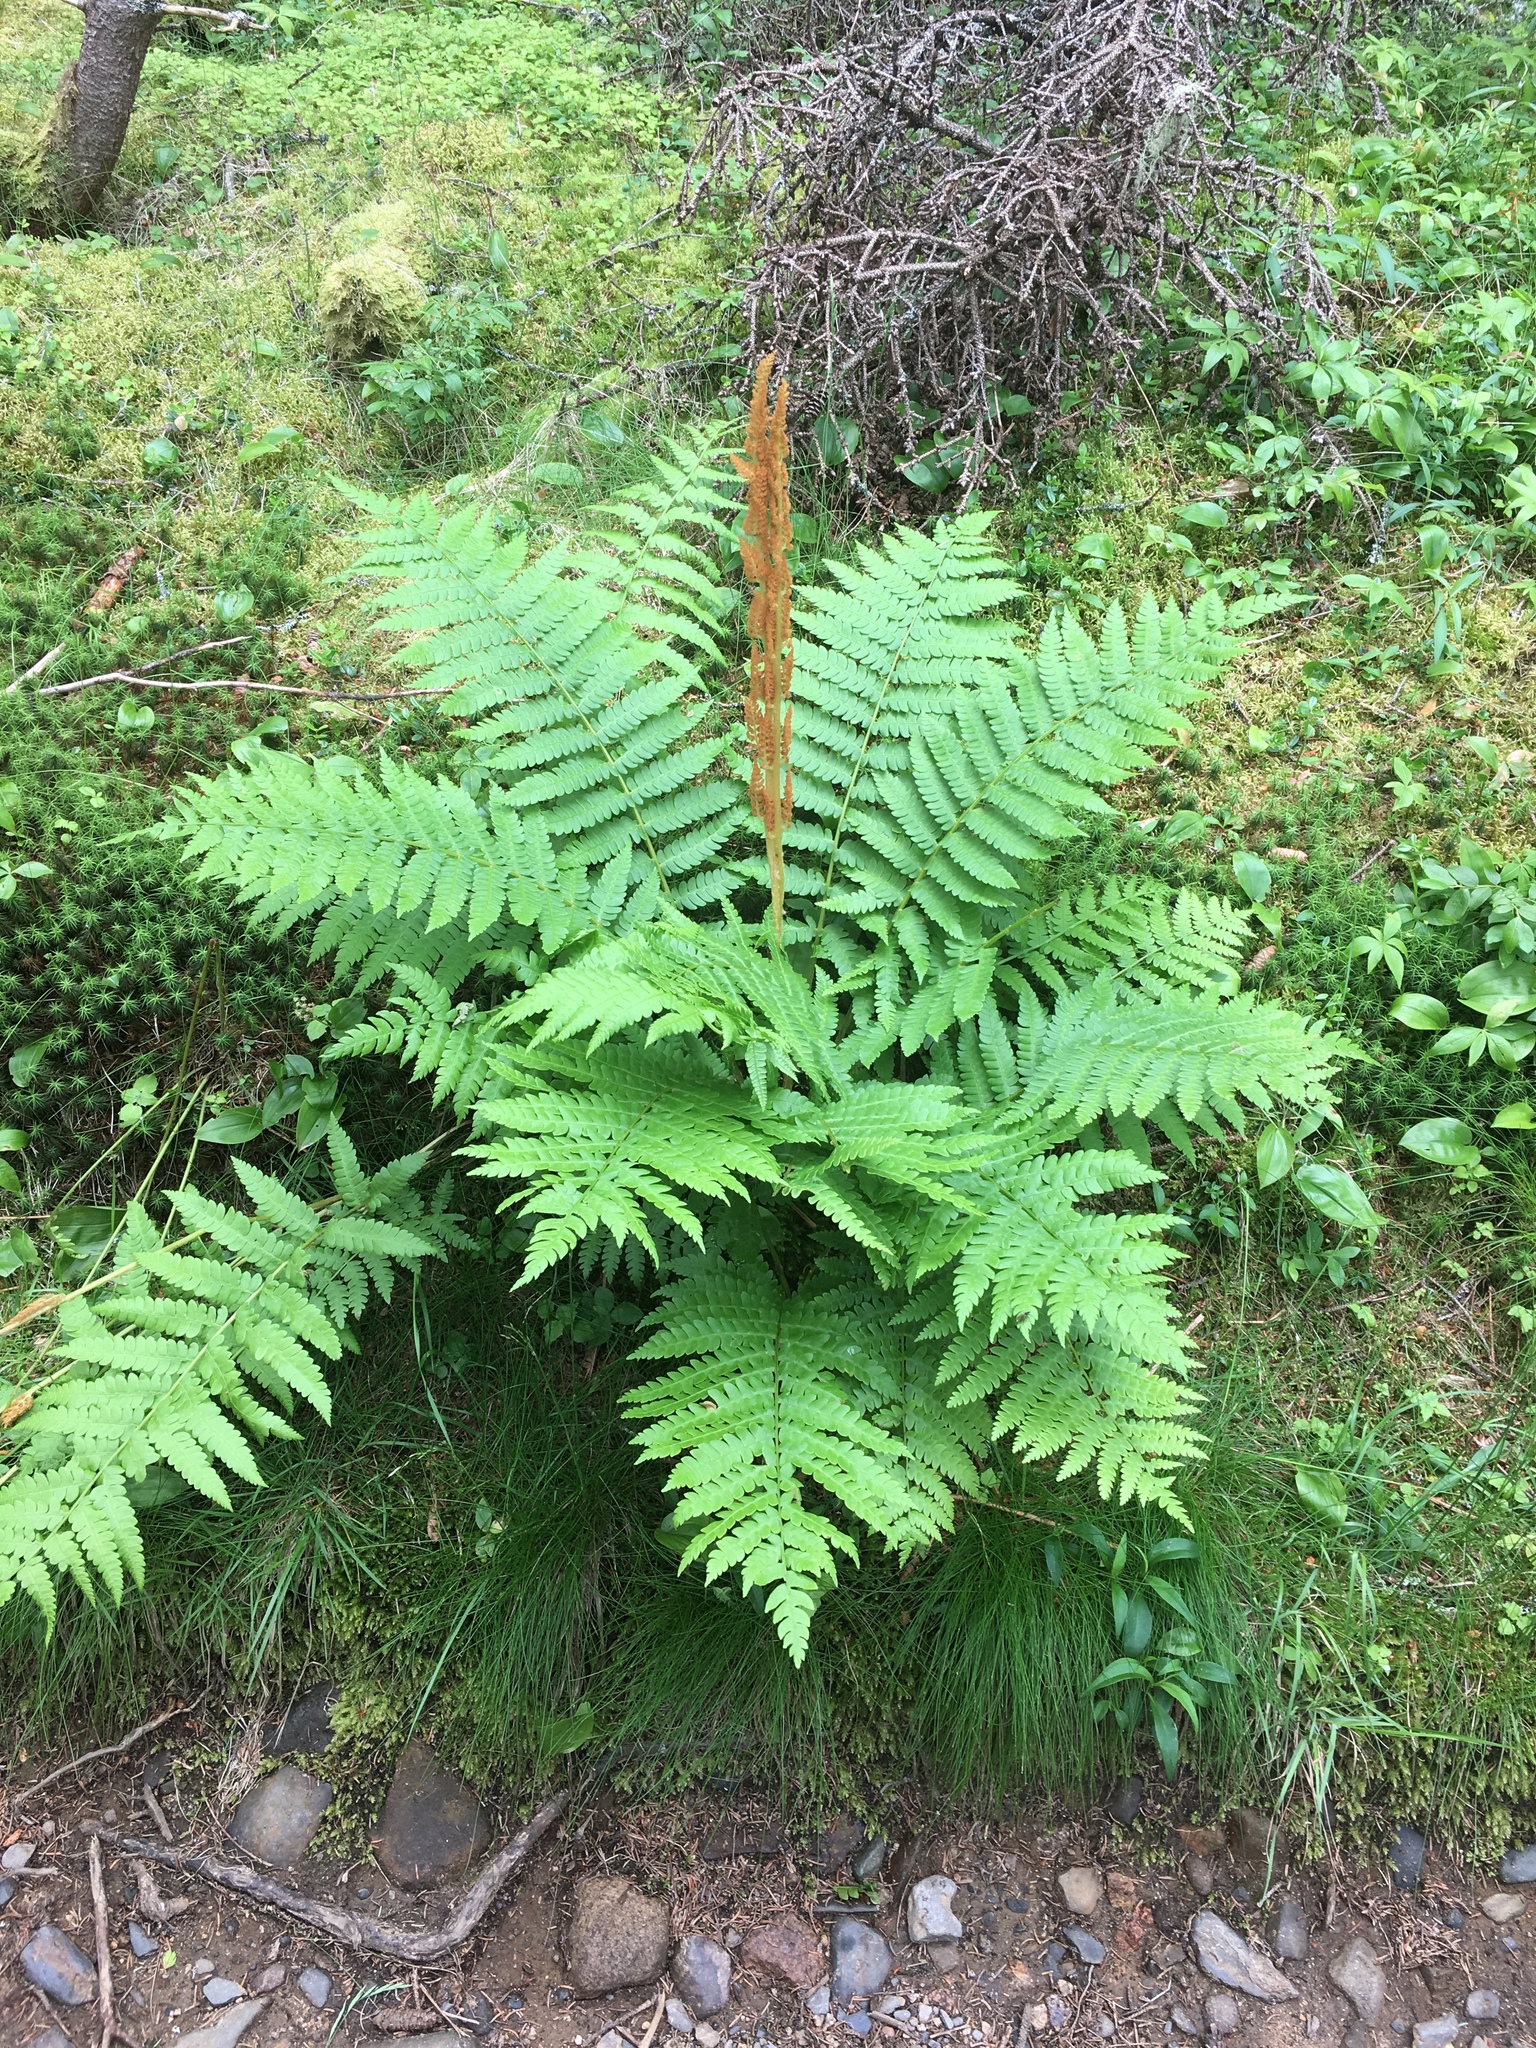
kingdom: Plantae
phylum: Tracheophyta
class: Polypodiopsida
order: Osmundales
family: Osmundaceae
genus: Osmundastrum
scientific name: Osmundastrum cinnamomeum
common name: Cinnamon fern
